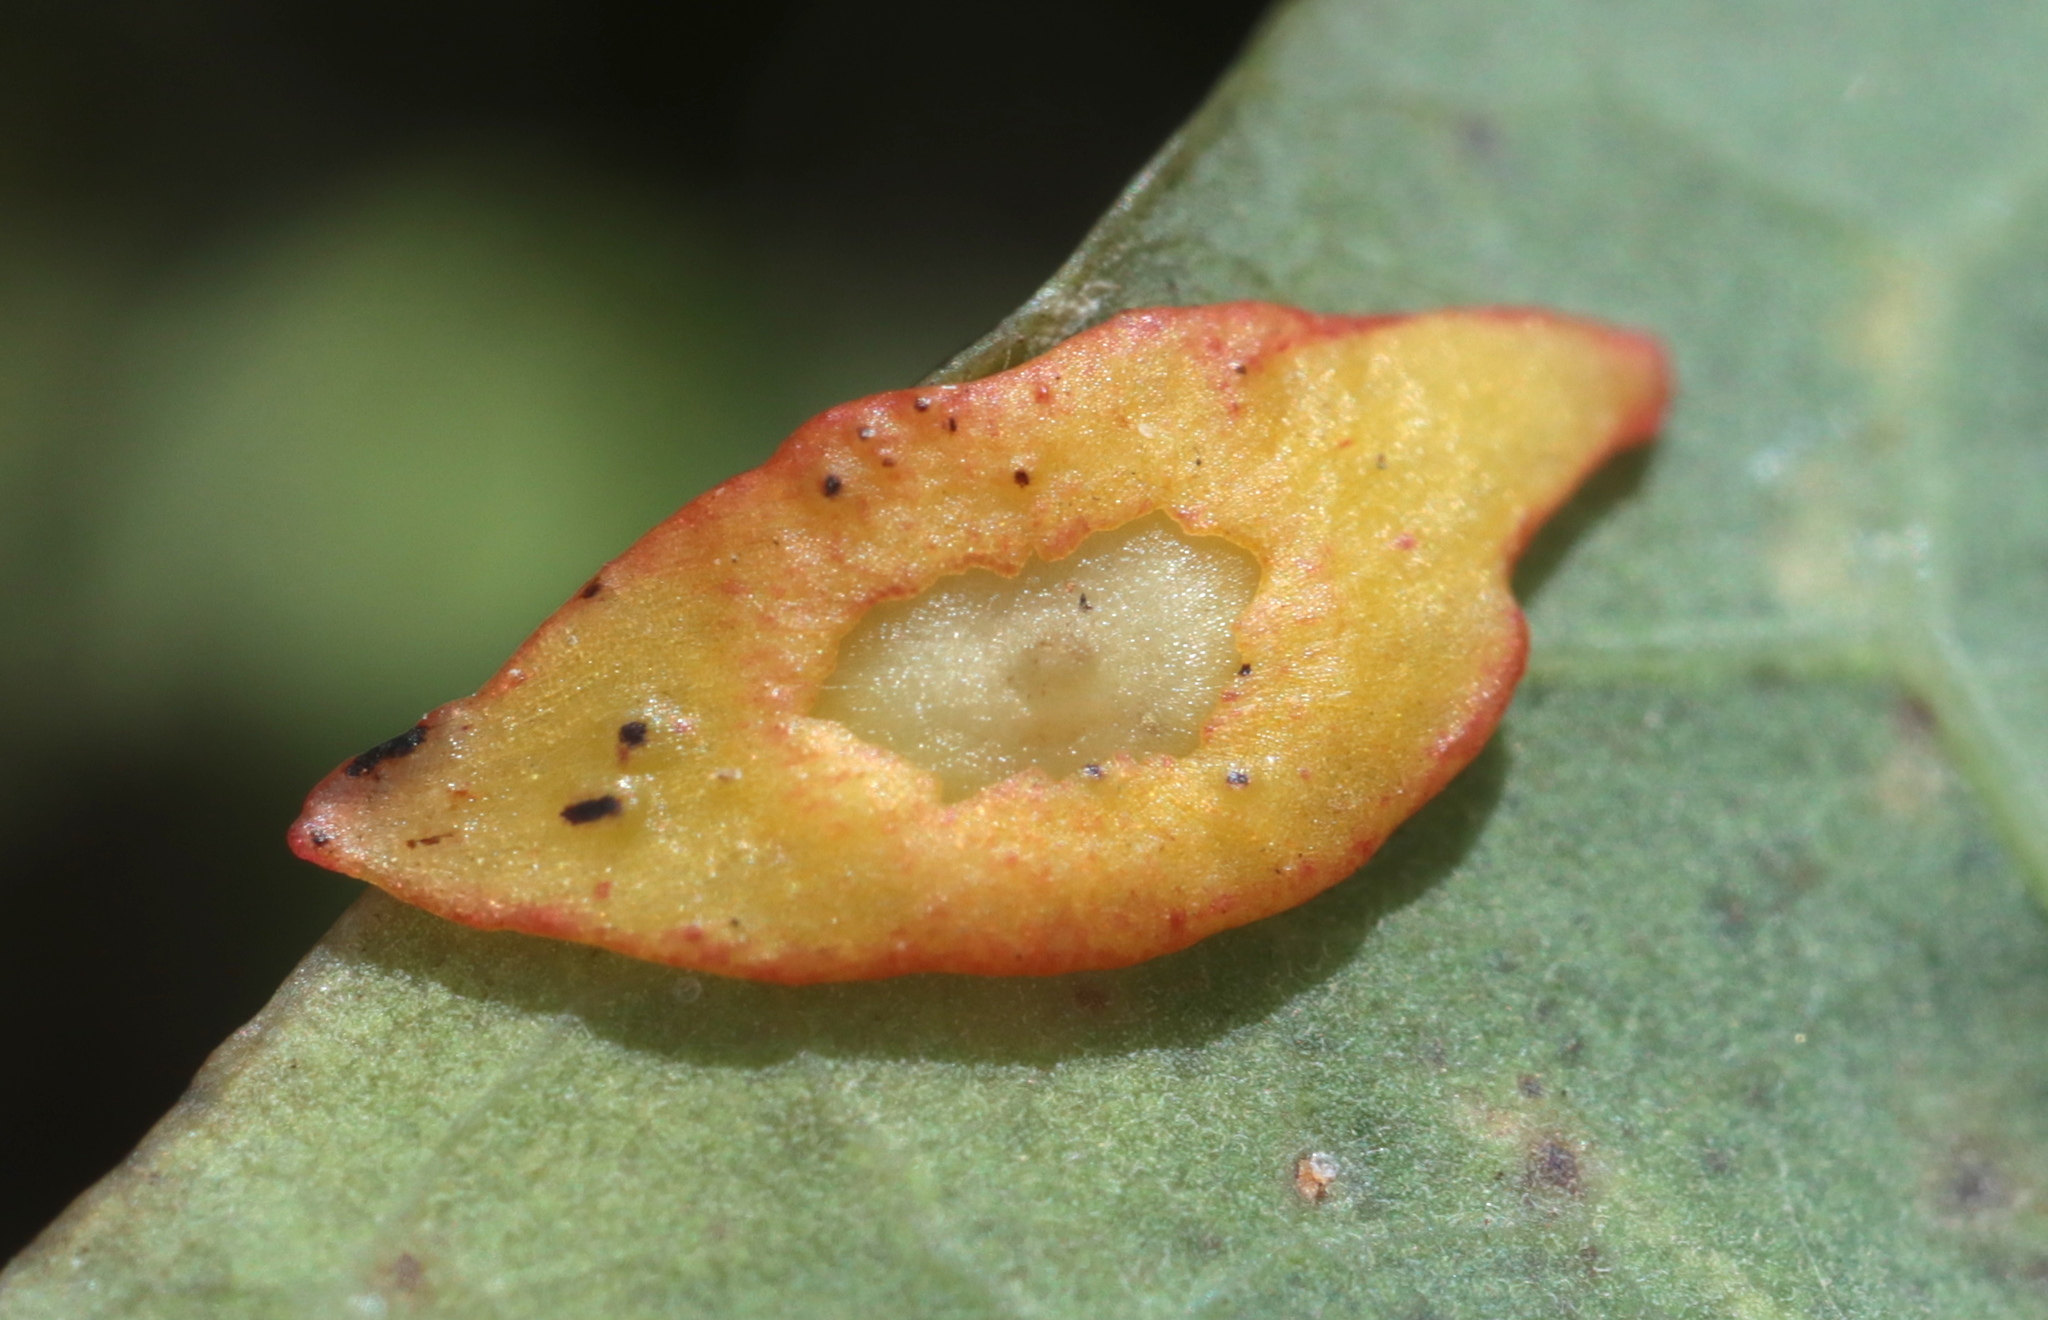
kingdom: Animalia
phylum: Arthropoda
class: Insecta
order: Hymenoptera
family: Cynipidae
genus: Phylloteras
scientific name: Phylloteras
